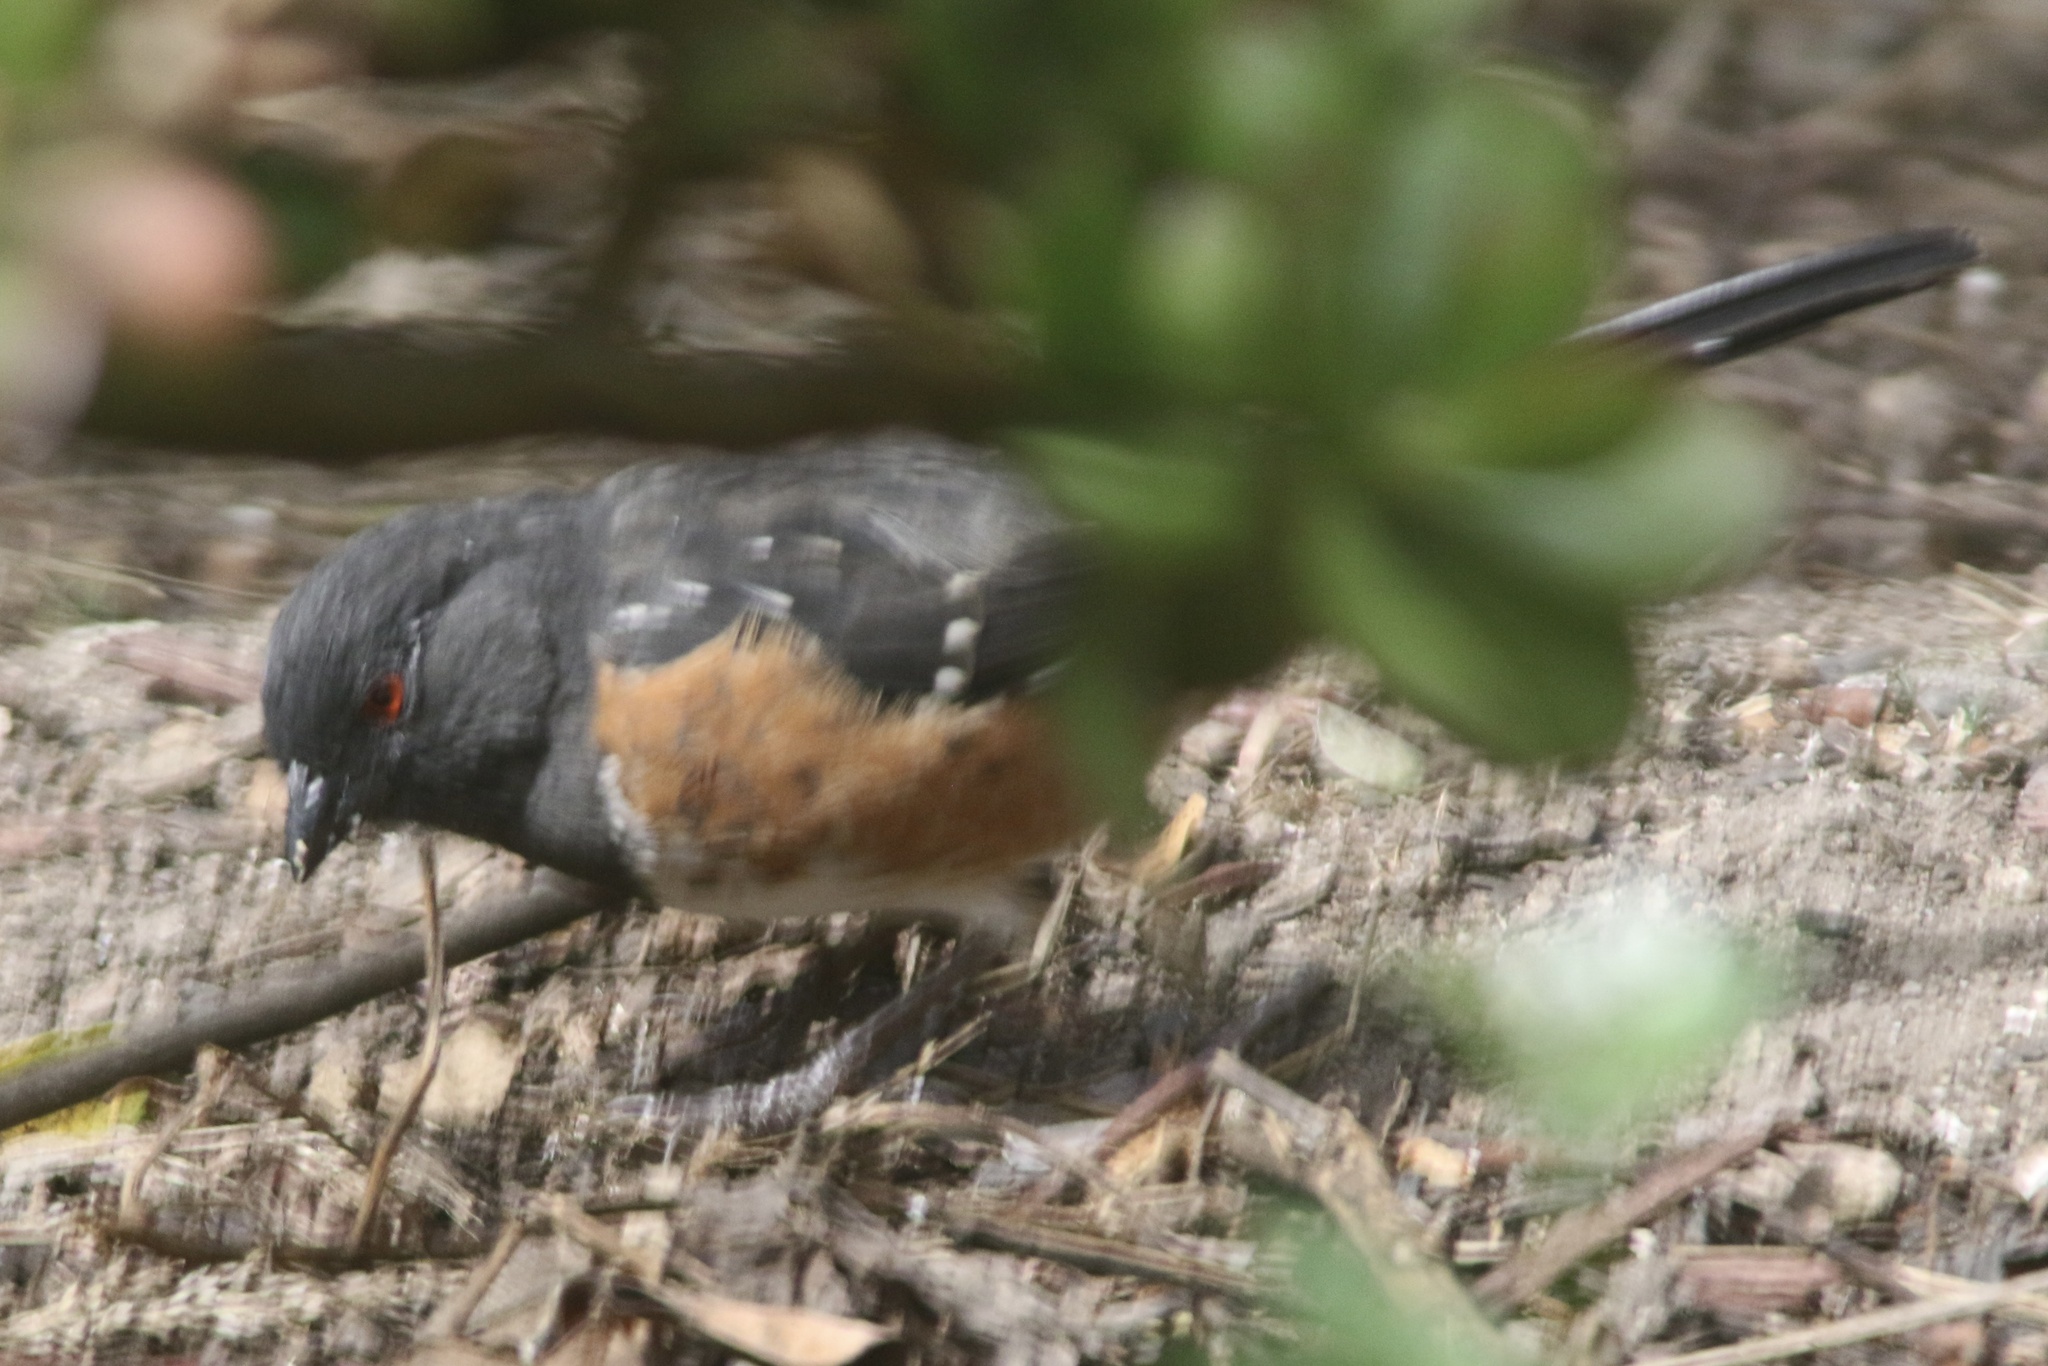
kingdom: Animalia
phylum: Chordata
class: Aves
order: Passeriformes
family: Passerellidae
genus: Pipilo
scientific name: Pipilo maculatus
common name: Spotted towhee
